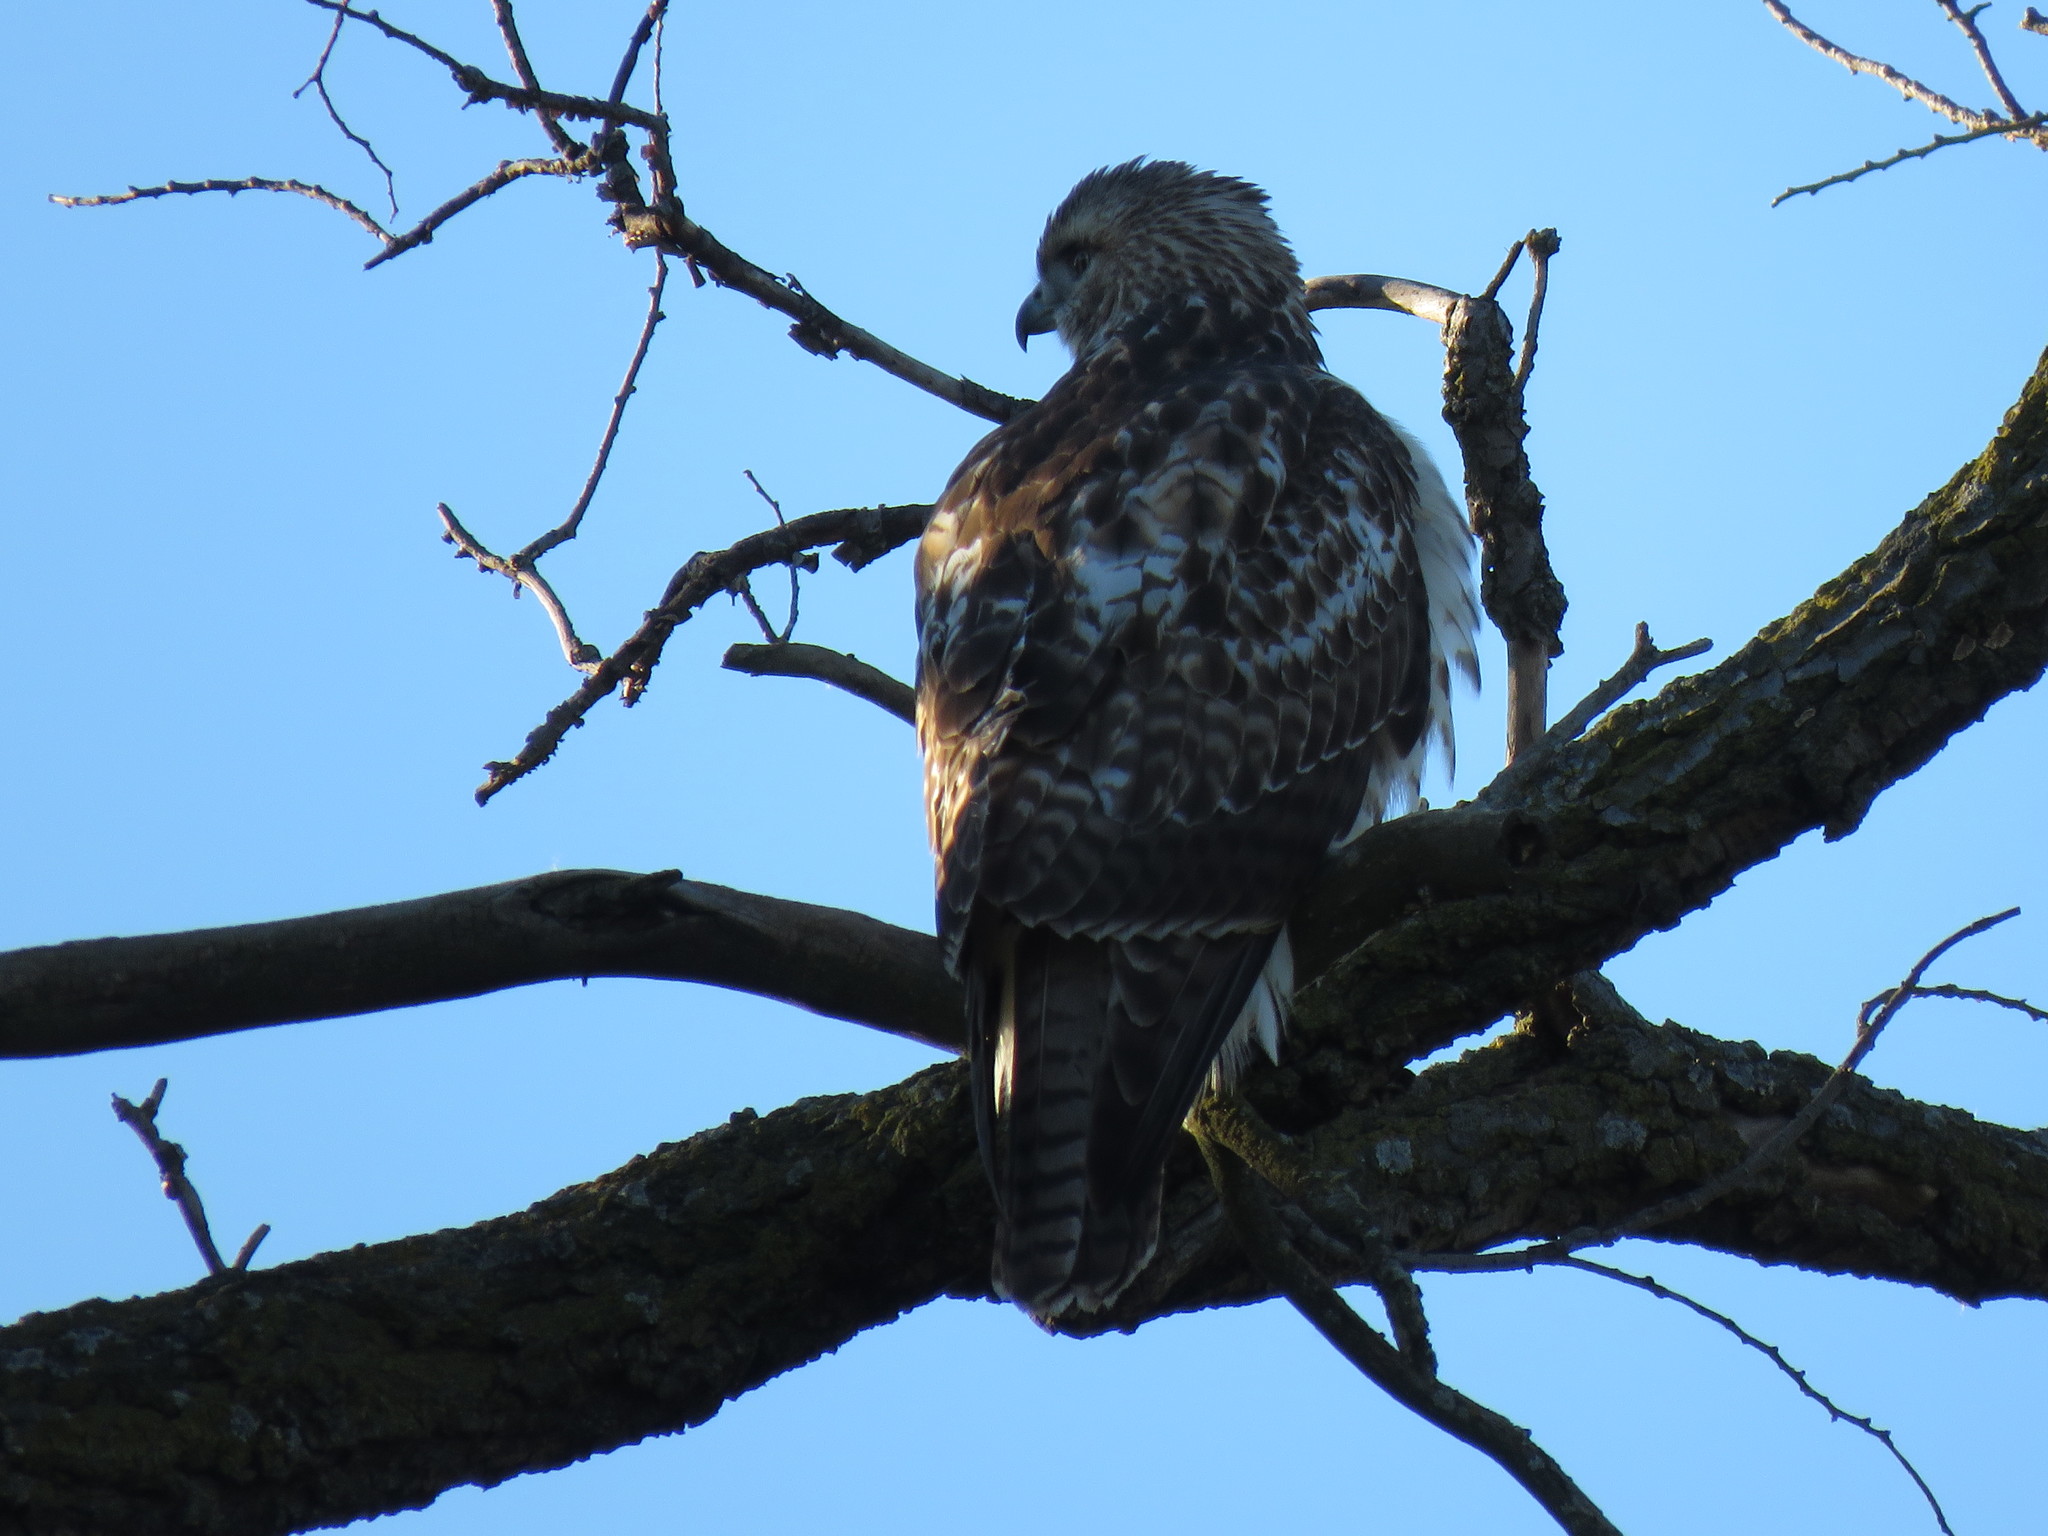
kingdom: Animalia
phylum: Chordata
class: Aves
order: Accipitriformes
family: Accipitridae
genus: Buteo
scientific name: Buteo jamaicensis
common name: Red-tailed hawk
